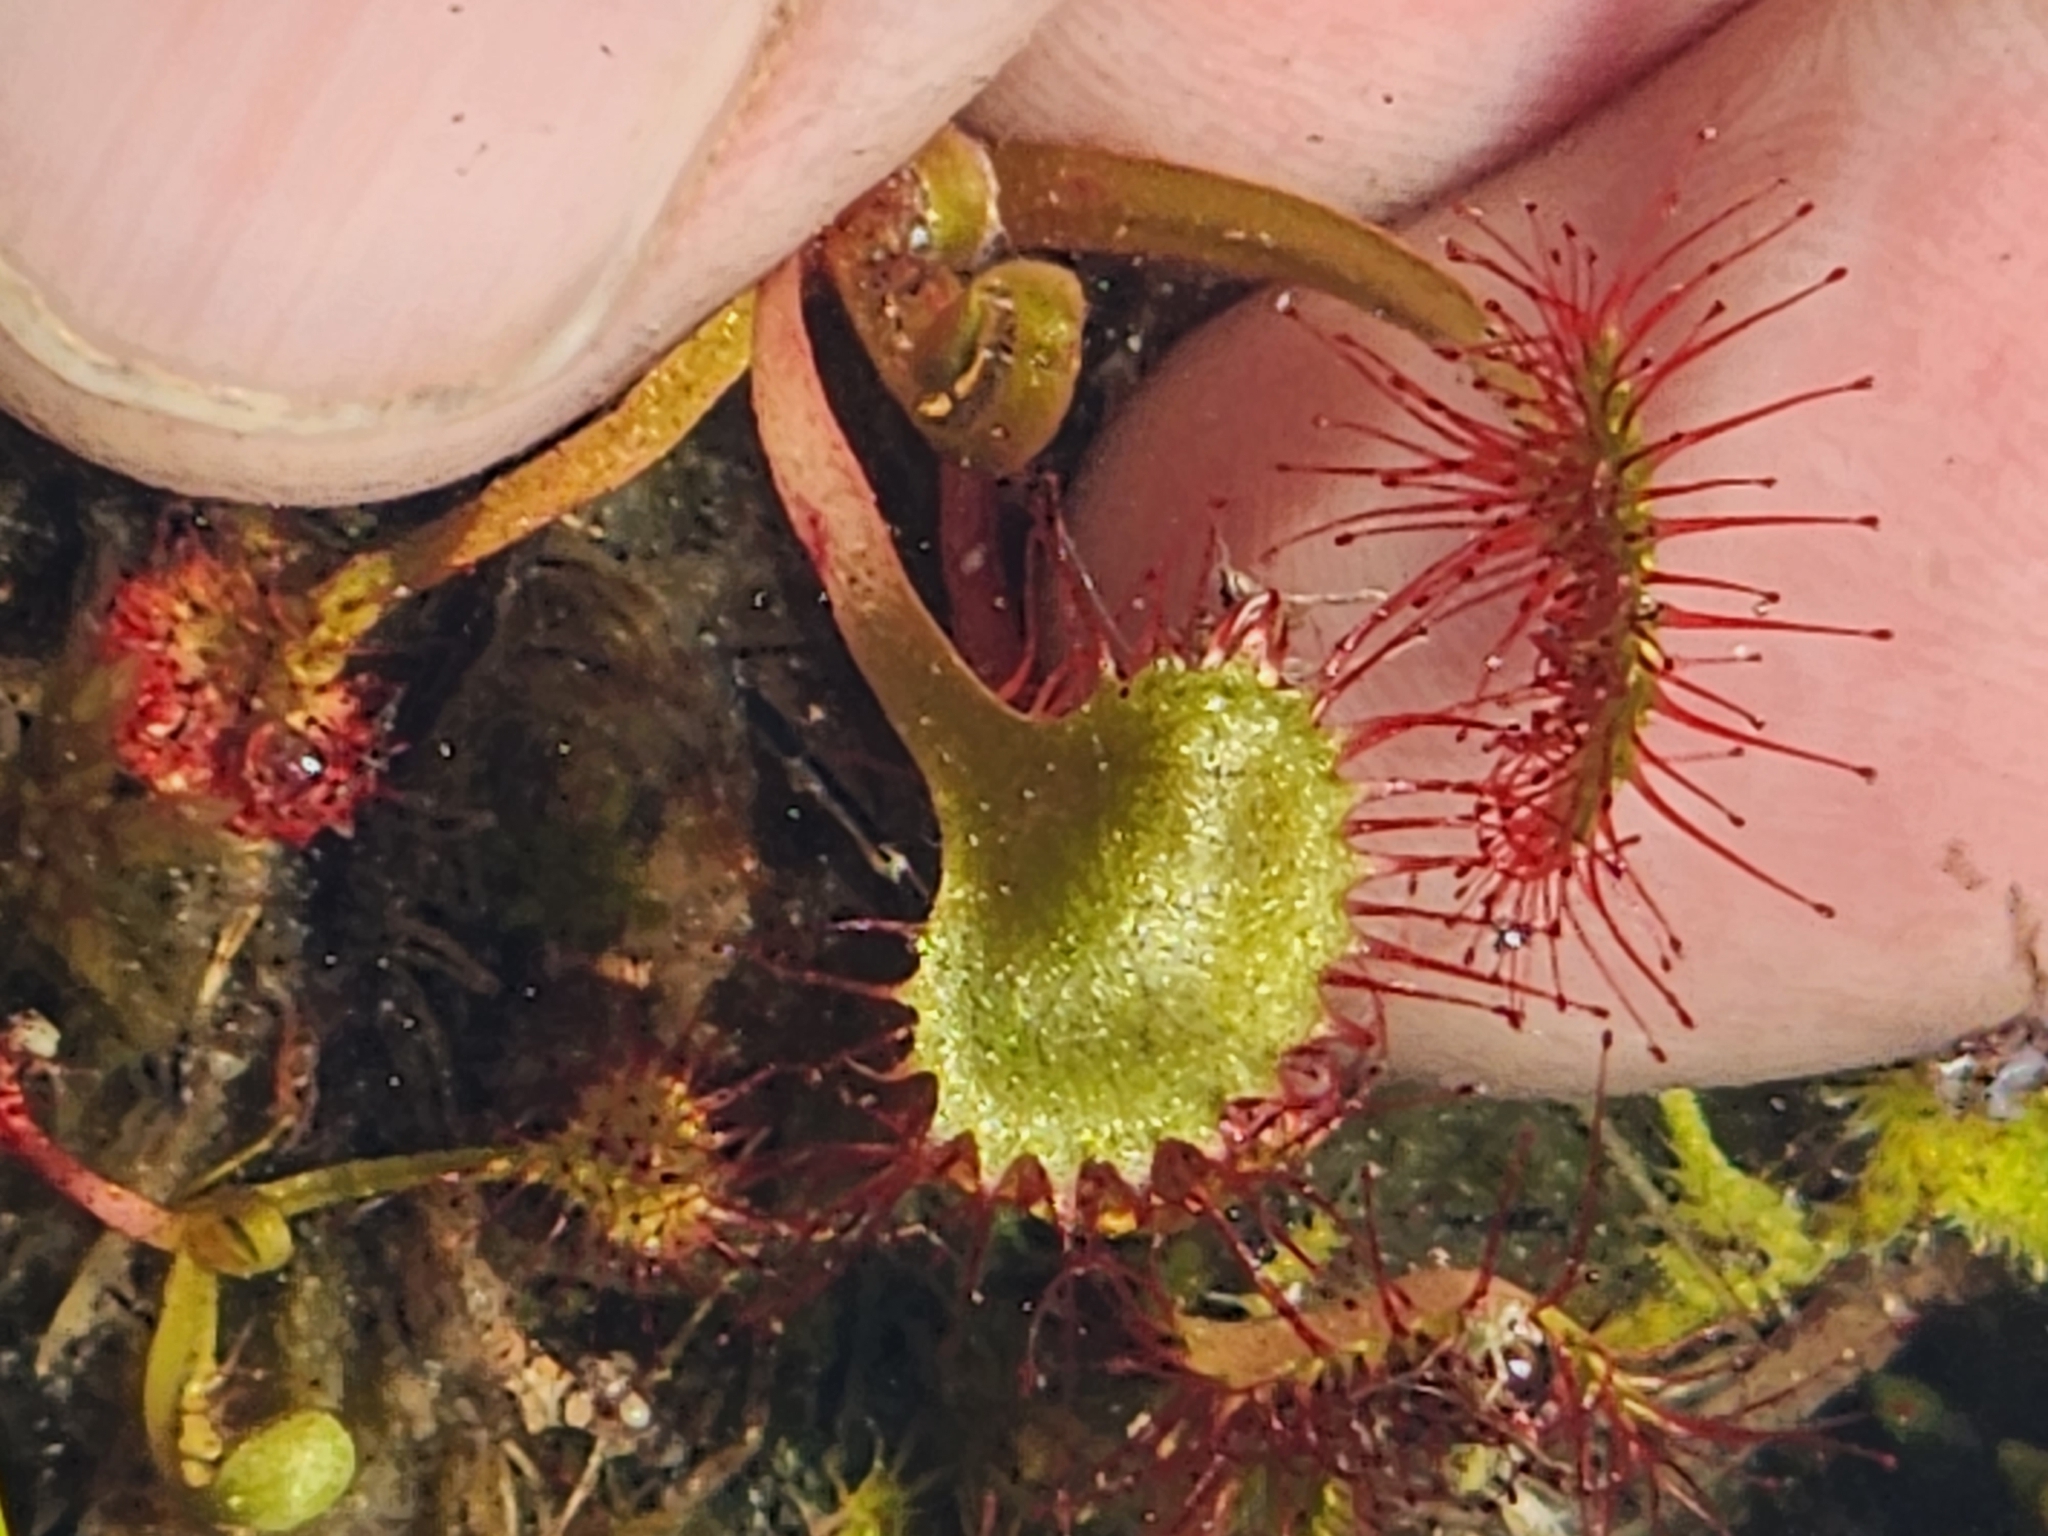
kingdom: Plantae
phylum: Tracheophyta
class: Magnoliopsida
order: Caryophyllales
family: Droseraceae
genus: Drosera
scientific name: Drosera rotundifolia
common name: Round-leaved sundew
